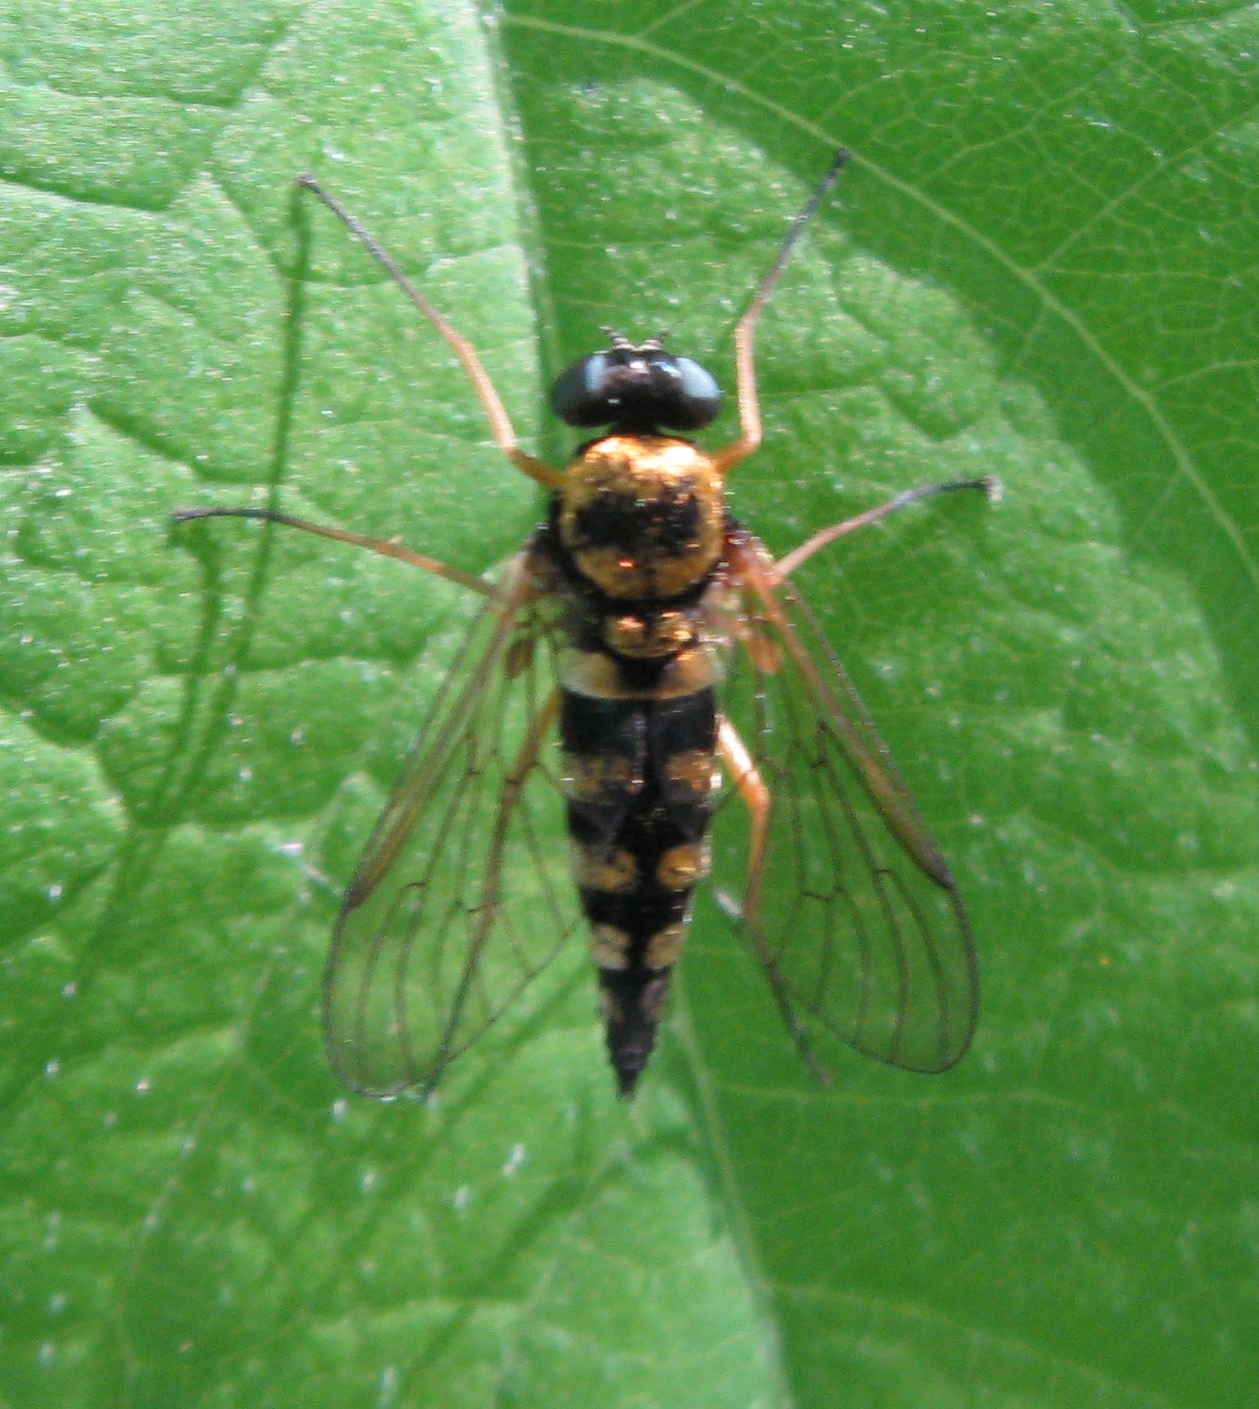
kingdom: Animalia
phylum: Arthropoda
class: Insecta
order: Diptera
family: Rhagionidae
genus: Chrysopilus
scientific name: Chrysopilus ornatus
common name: Ornate snipe fly
